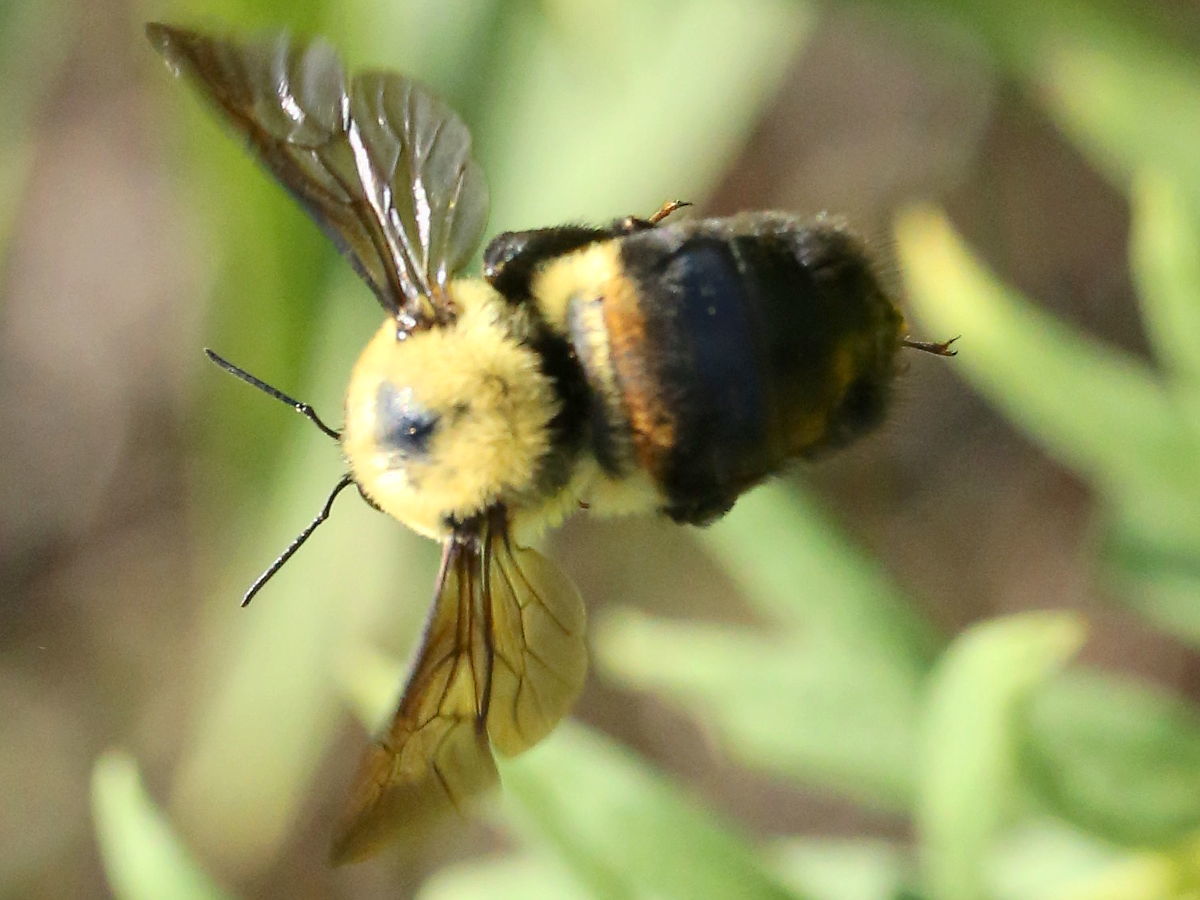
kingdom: Animalia
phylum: Arthropoda
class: Insecta
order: Hymenoptera
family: Apidae
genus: Bombus
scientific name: Bombus griseocollis
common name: Brown-belted bumble bee
